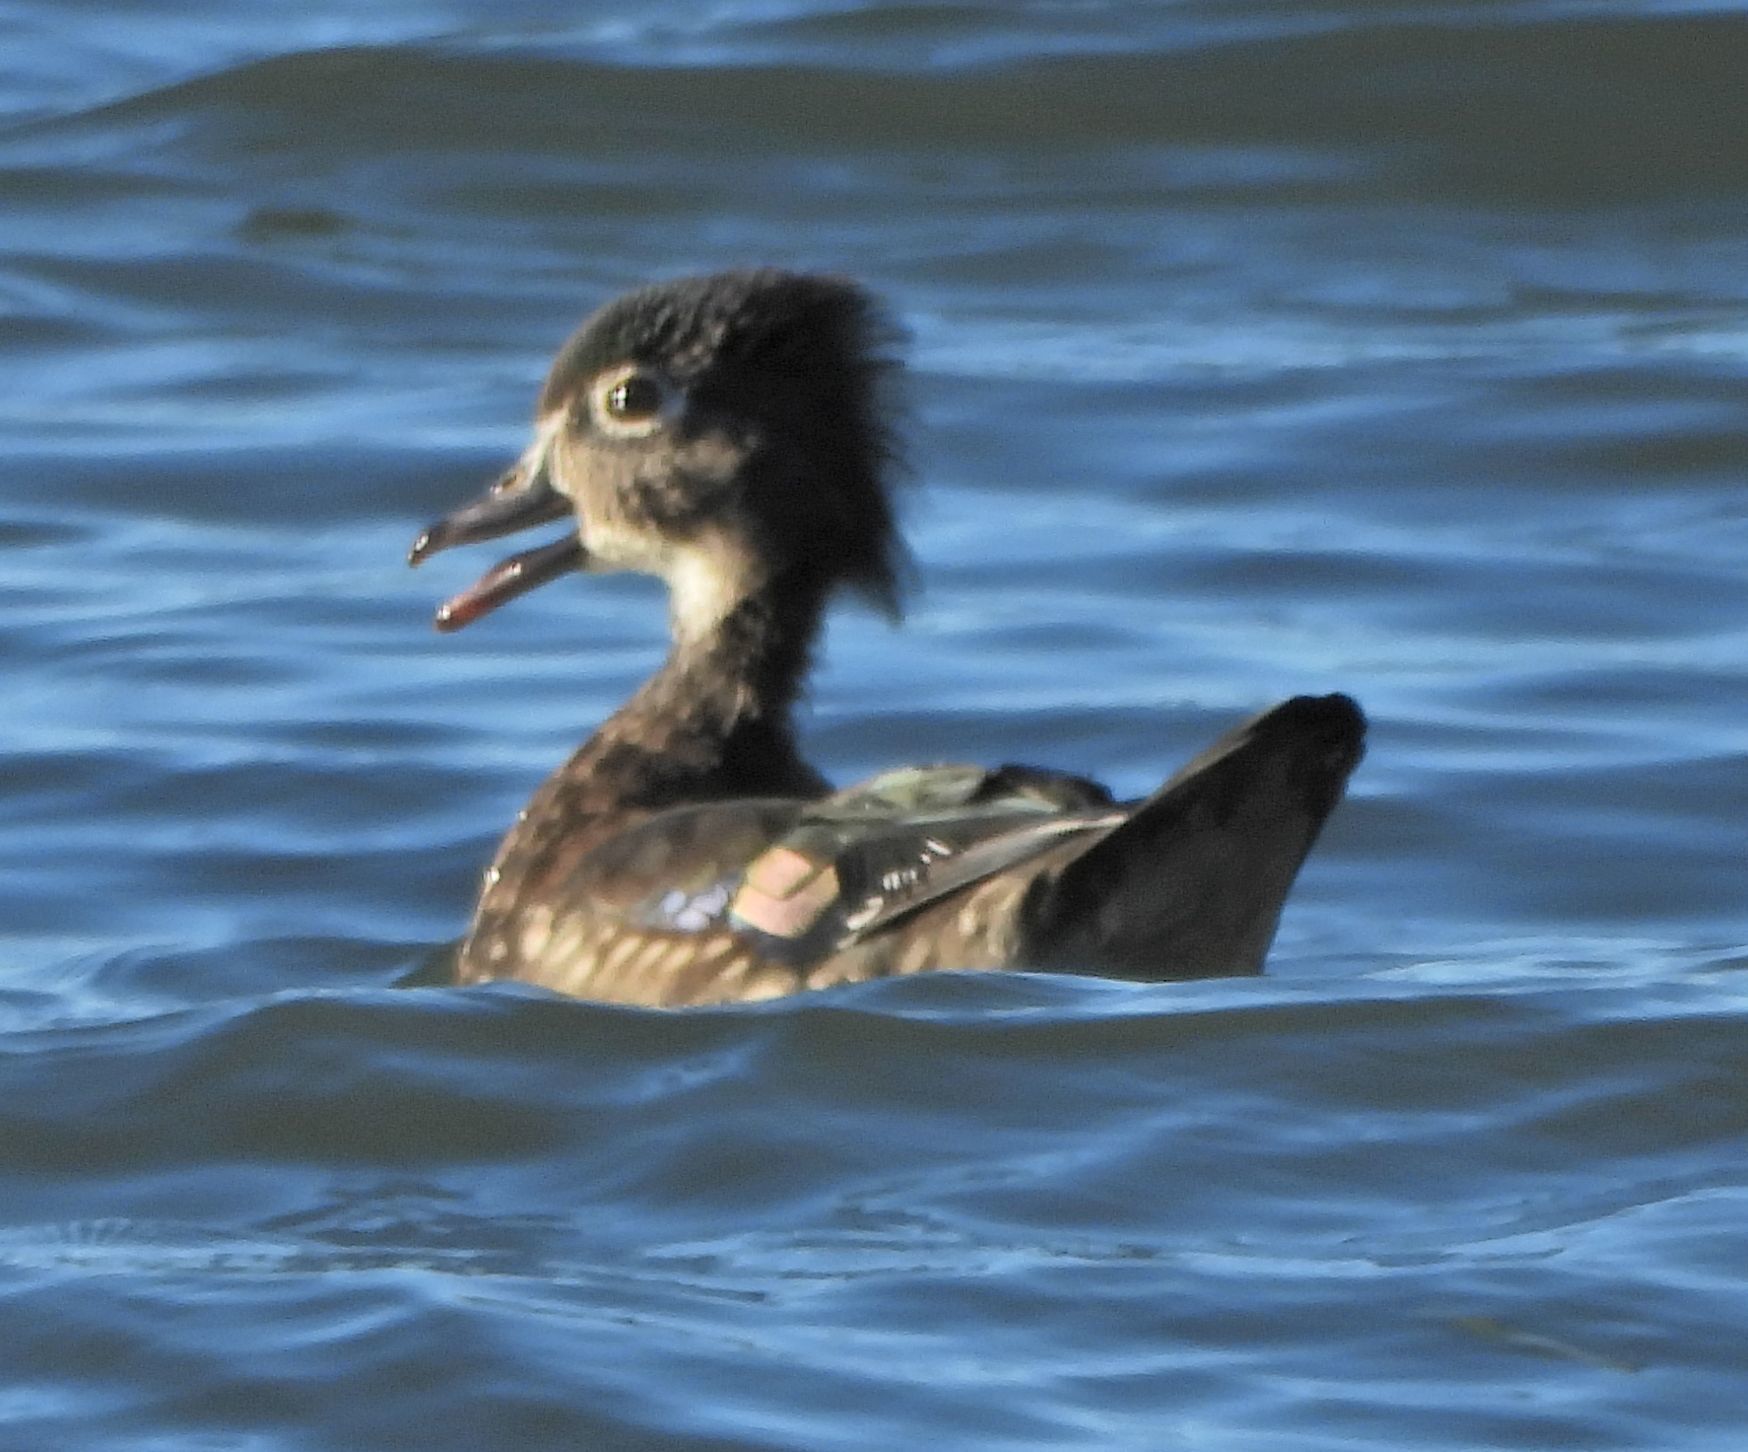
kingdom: Animalia
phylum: Chordata
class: Aves
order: Anseriformes
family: Anatidae
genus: Aix
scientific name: Aix sponsa
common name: Wood duck
